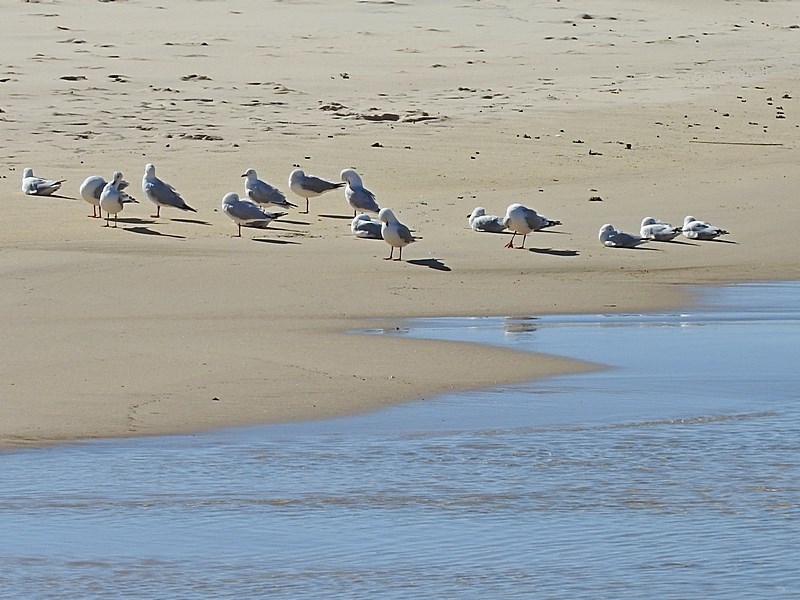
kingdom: Animalia
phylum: Chordata
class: Aves
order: Charadriiformes
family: Laridae
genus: Chroicocephalus
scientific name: Chroicocephalus novaehollandiae
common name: Silver gull
